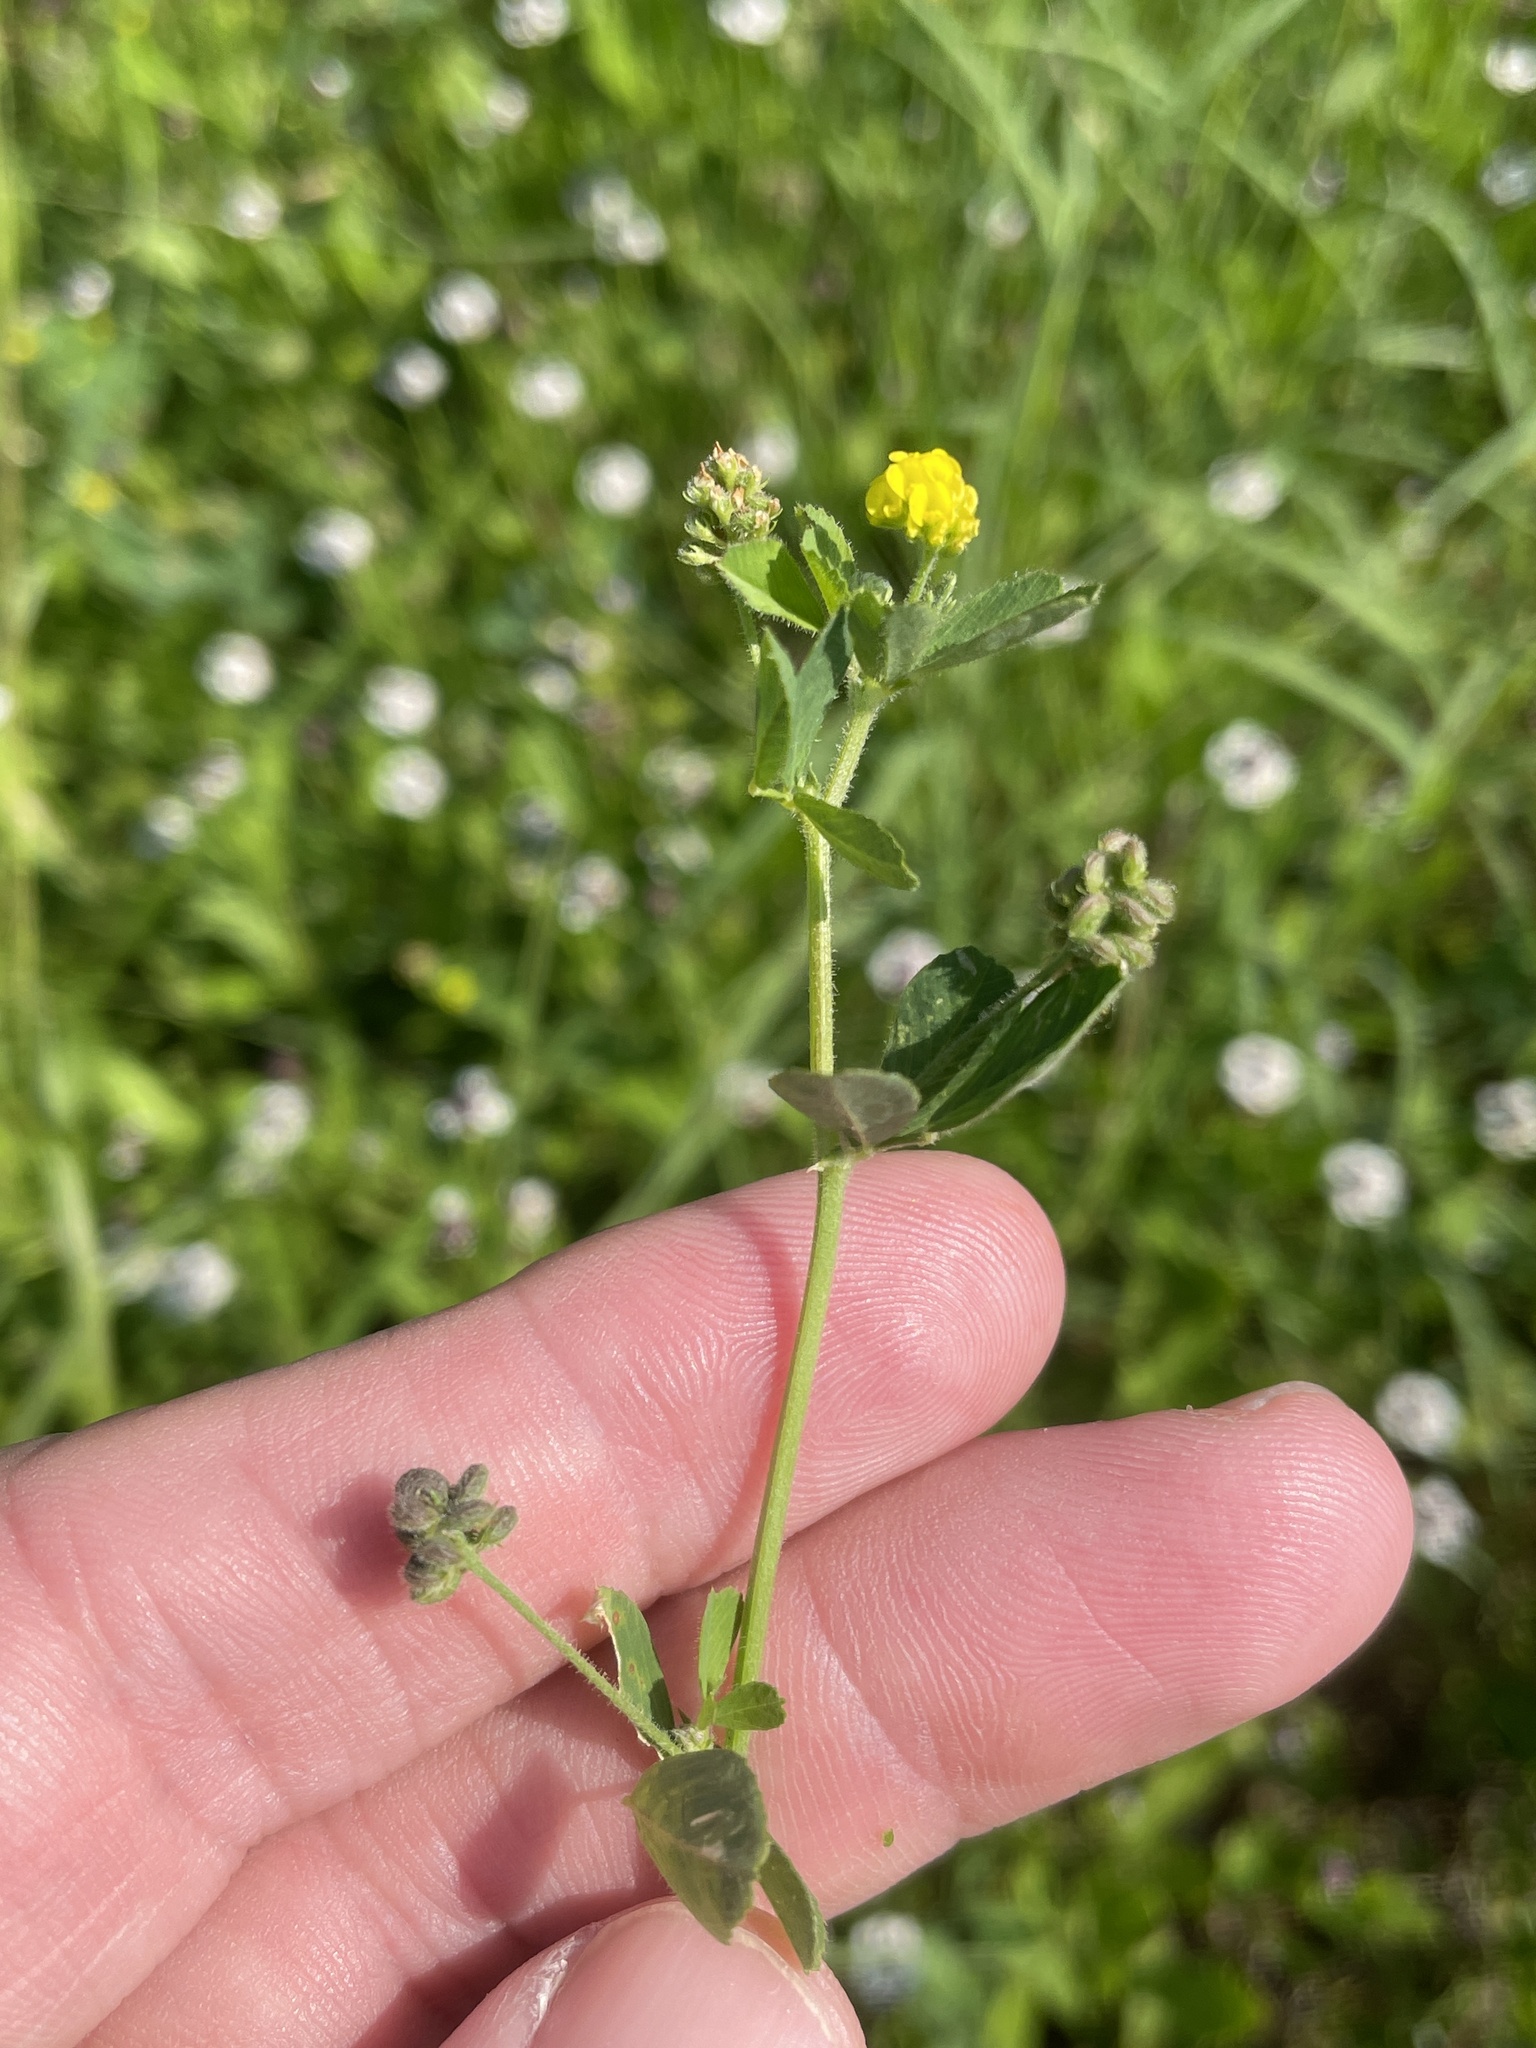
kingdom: Plantae
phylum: Tracheophyta
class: Magnoliopsida
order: Fabales
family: Fabaceae
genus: Medicago
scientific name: Medicago lupulina
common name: Black medick
